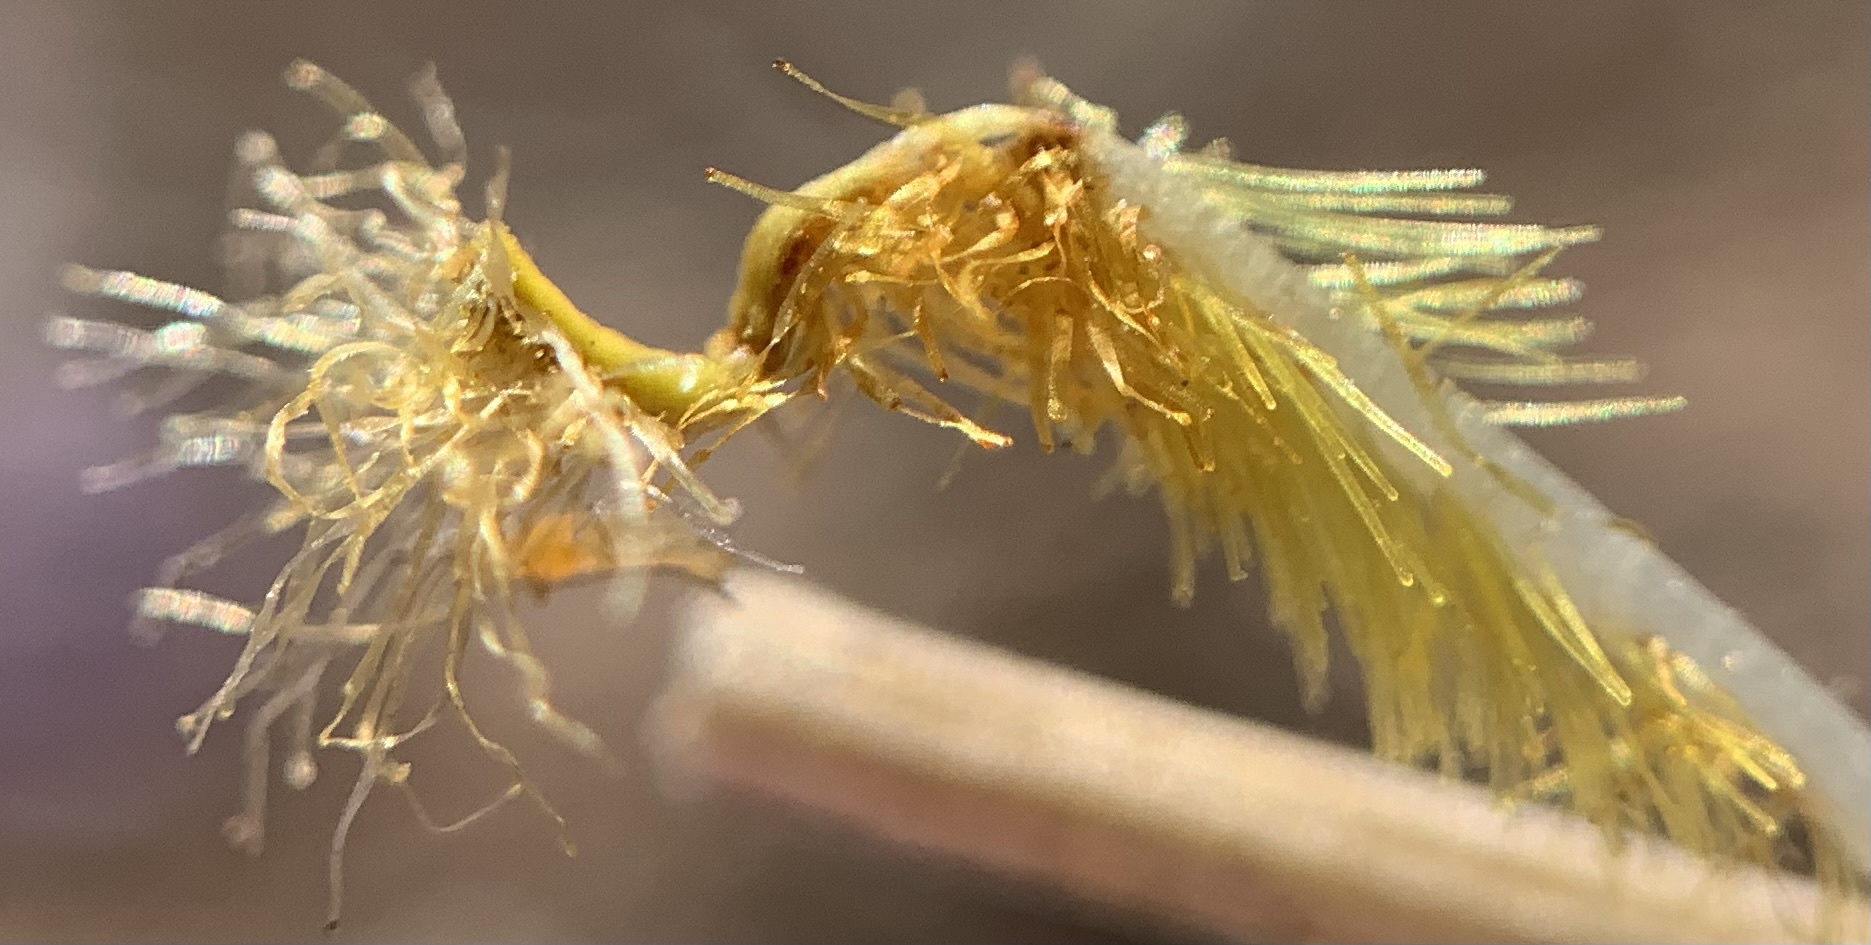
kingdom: Plantae
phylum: Tracheophyta
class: Magnoliopsida
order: Lamiales
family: Plantaginaceae
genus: Penstemon
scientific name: Penstemon ophianthus
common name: Arizona beardtongue
